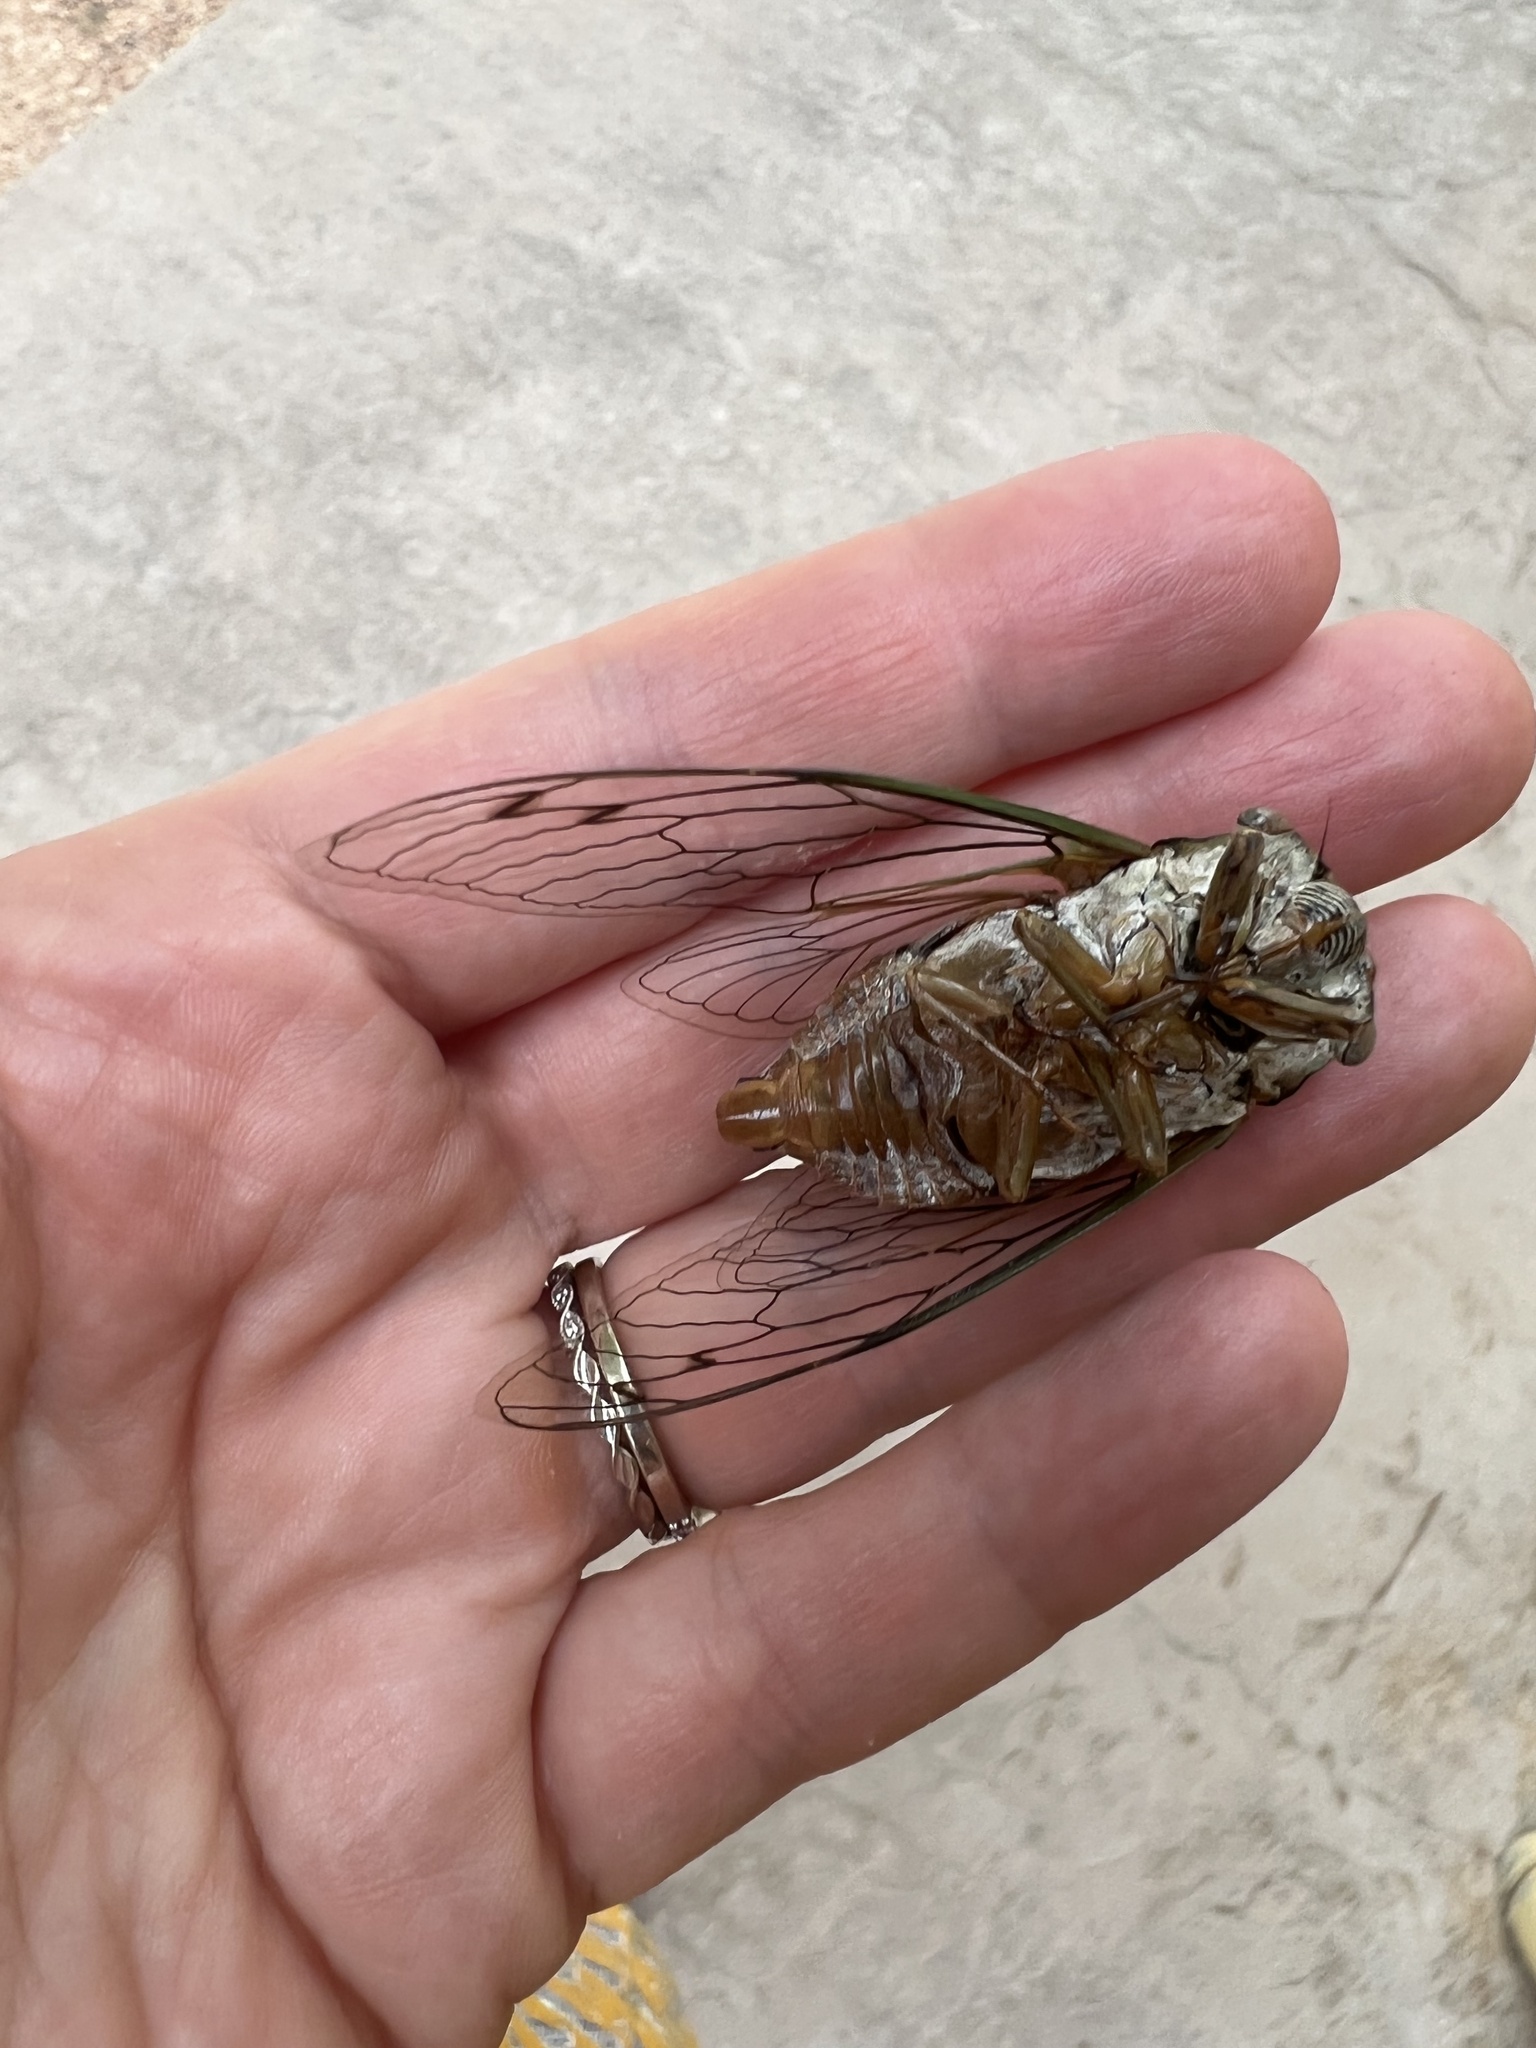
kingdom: Animalia
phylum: Arthropoda
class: Insecta
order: Hemiptera
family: Cicadidae
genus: Megatibicen
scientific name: Megatibicen resh
